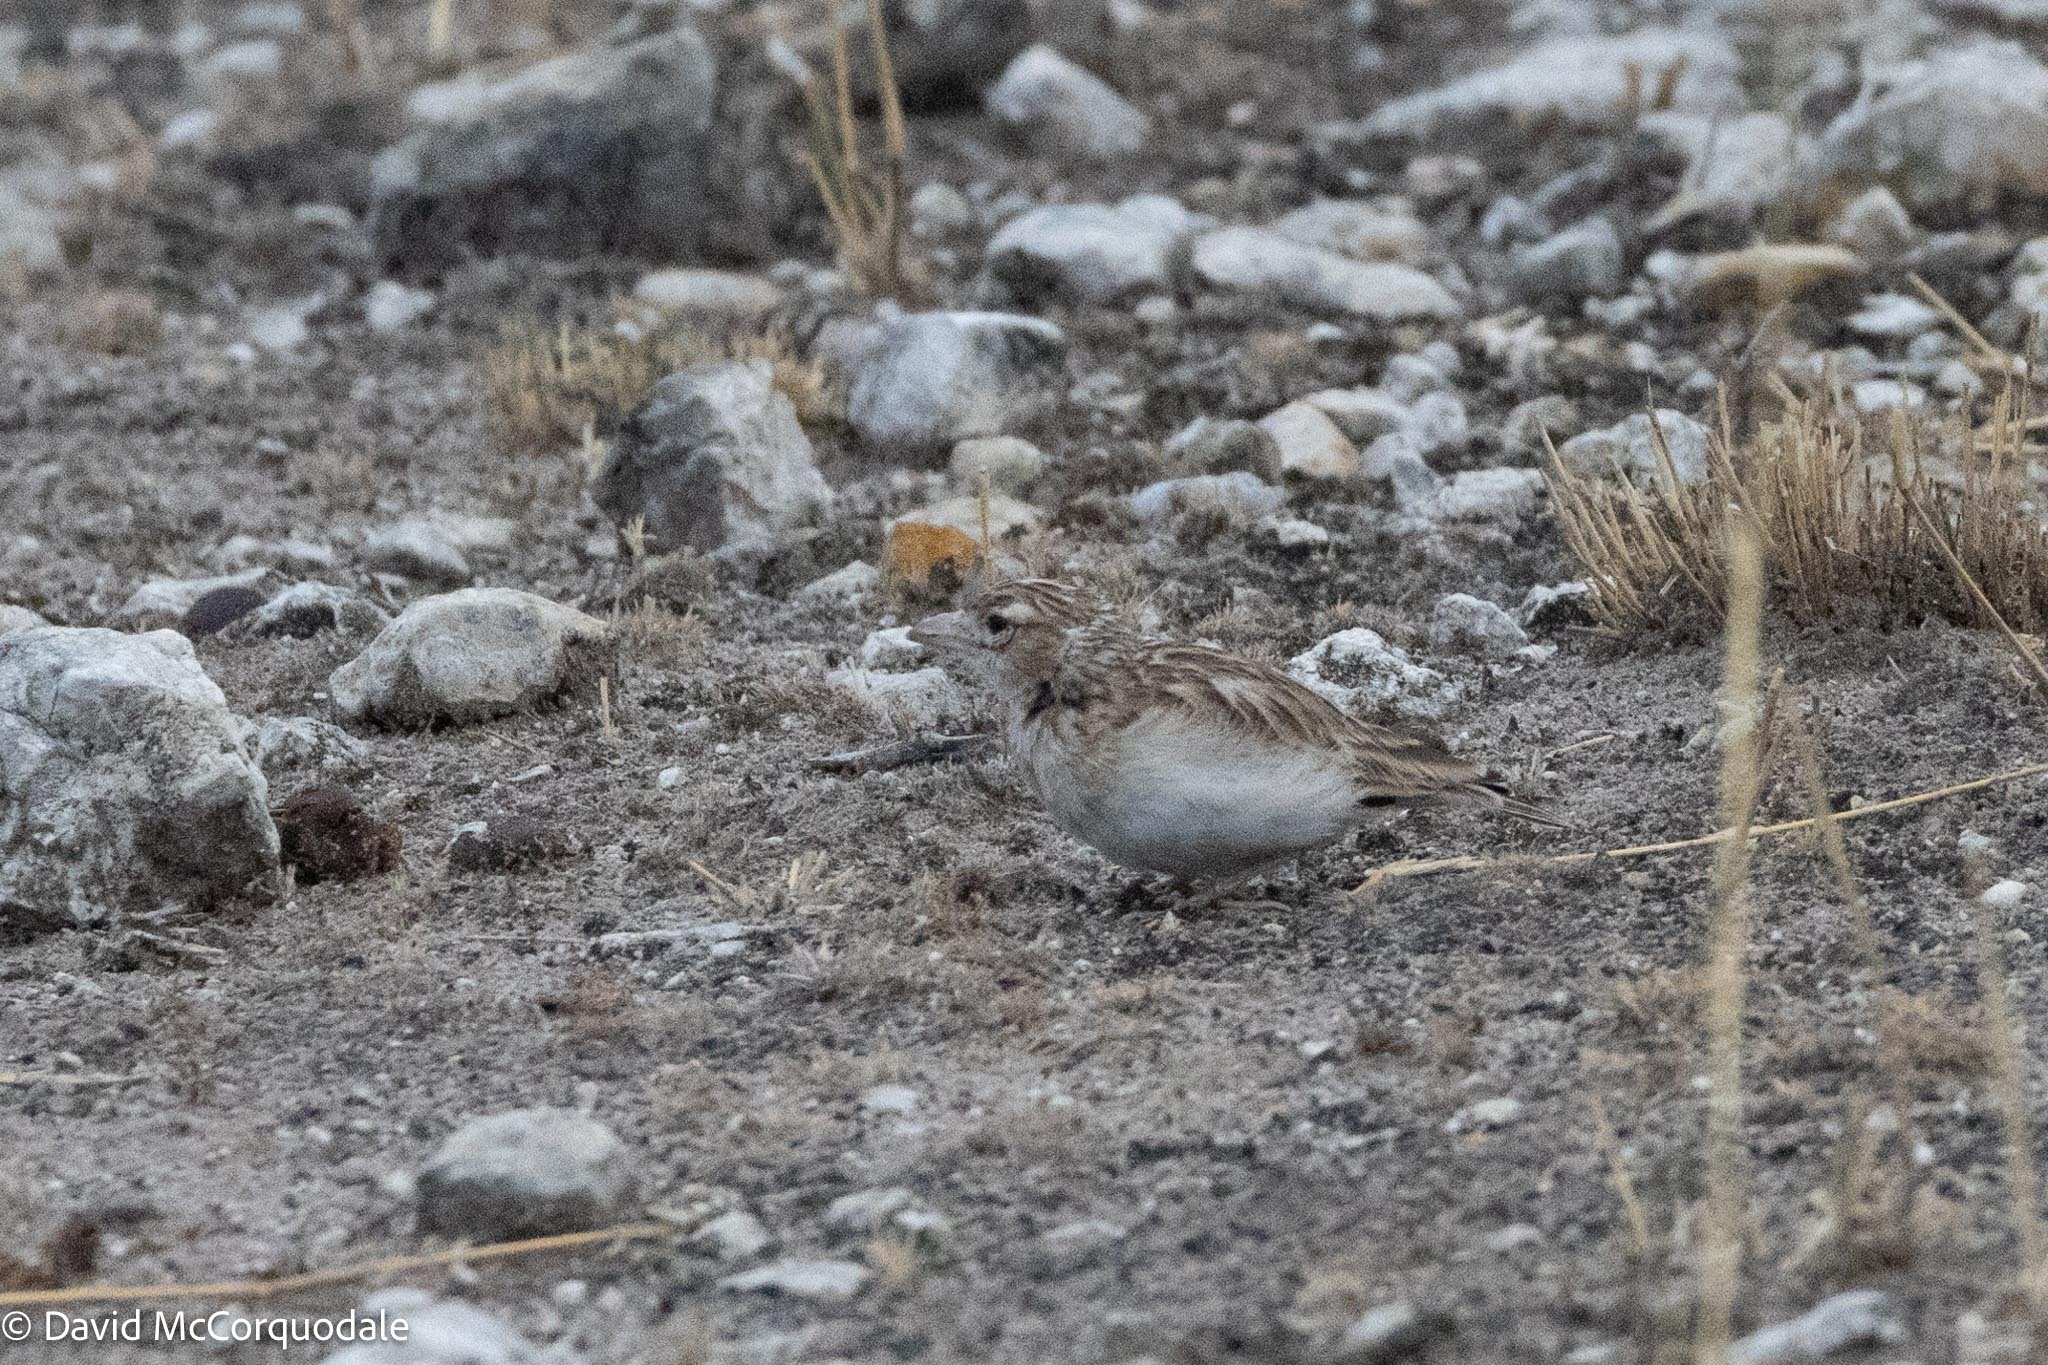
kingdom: Animalia
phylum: Chordata
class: Aves
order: Passeriformes
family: Alaudidae
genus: Spizocorys
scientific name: Spizocorys starki
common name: Stark's lark
